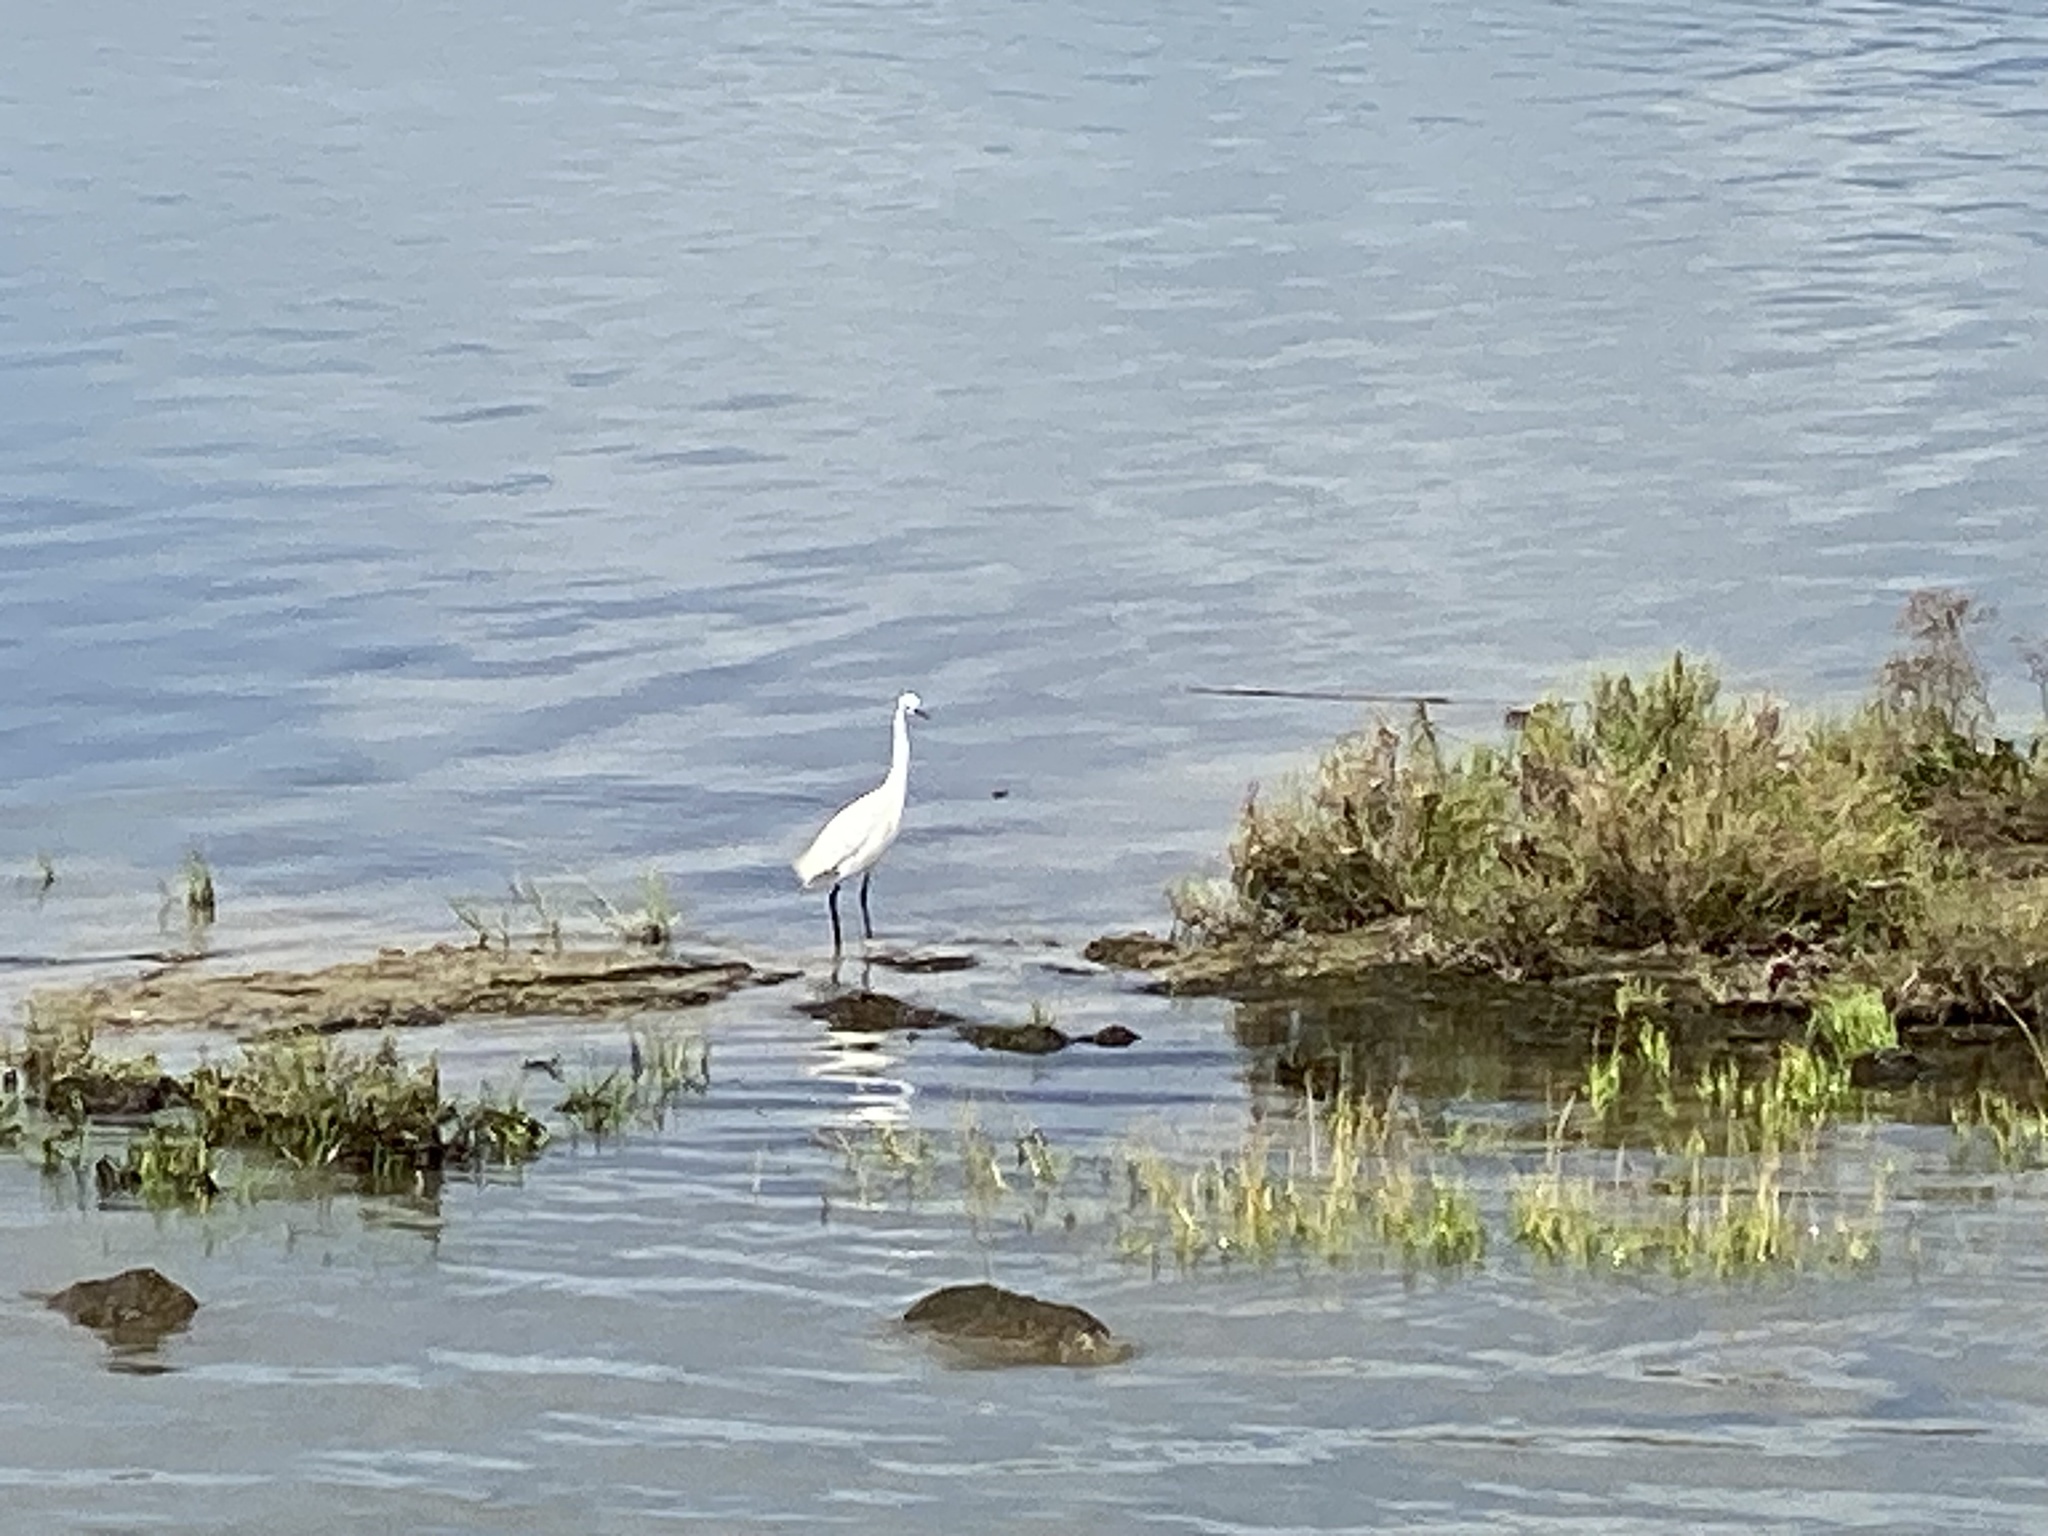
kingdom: Animalia
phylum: Chordata
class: Aves
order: Pelecaniformes
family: Ardeidae
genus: Egretta
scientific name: Egretta garzetta
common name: Little egret
